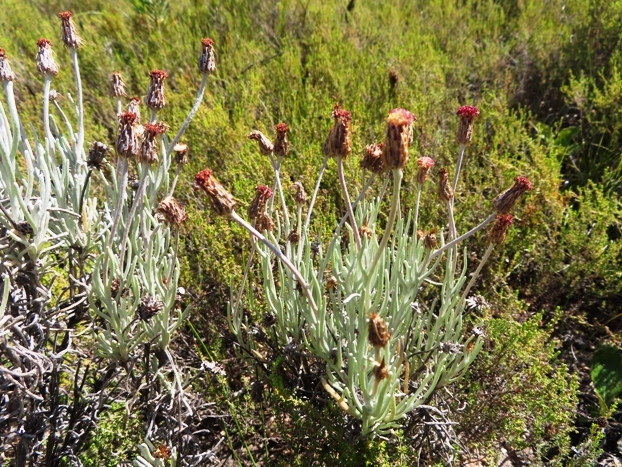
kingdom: Plantae
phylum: Tracheophyta
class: Magnoliopsida
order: Asterales
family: Asteraceae
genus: Syncarpha
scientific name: Syncarpha gnaphaloides
